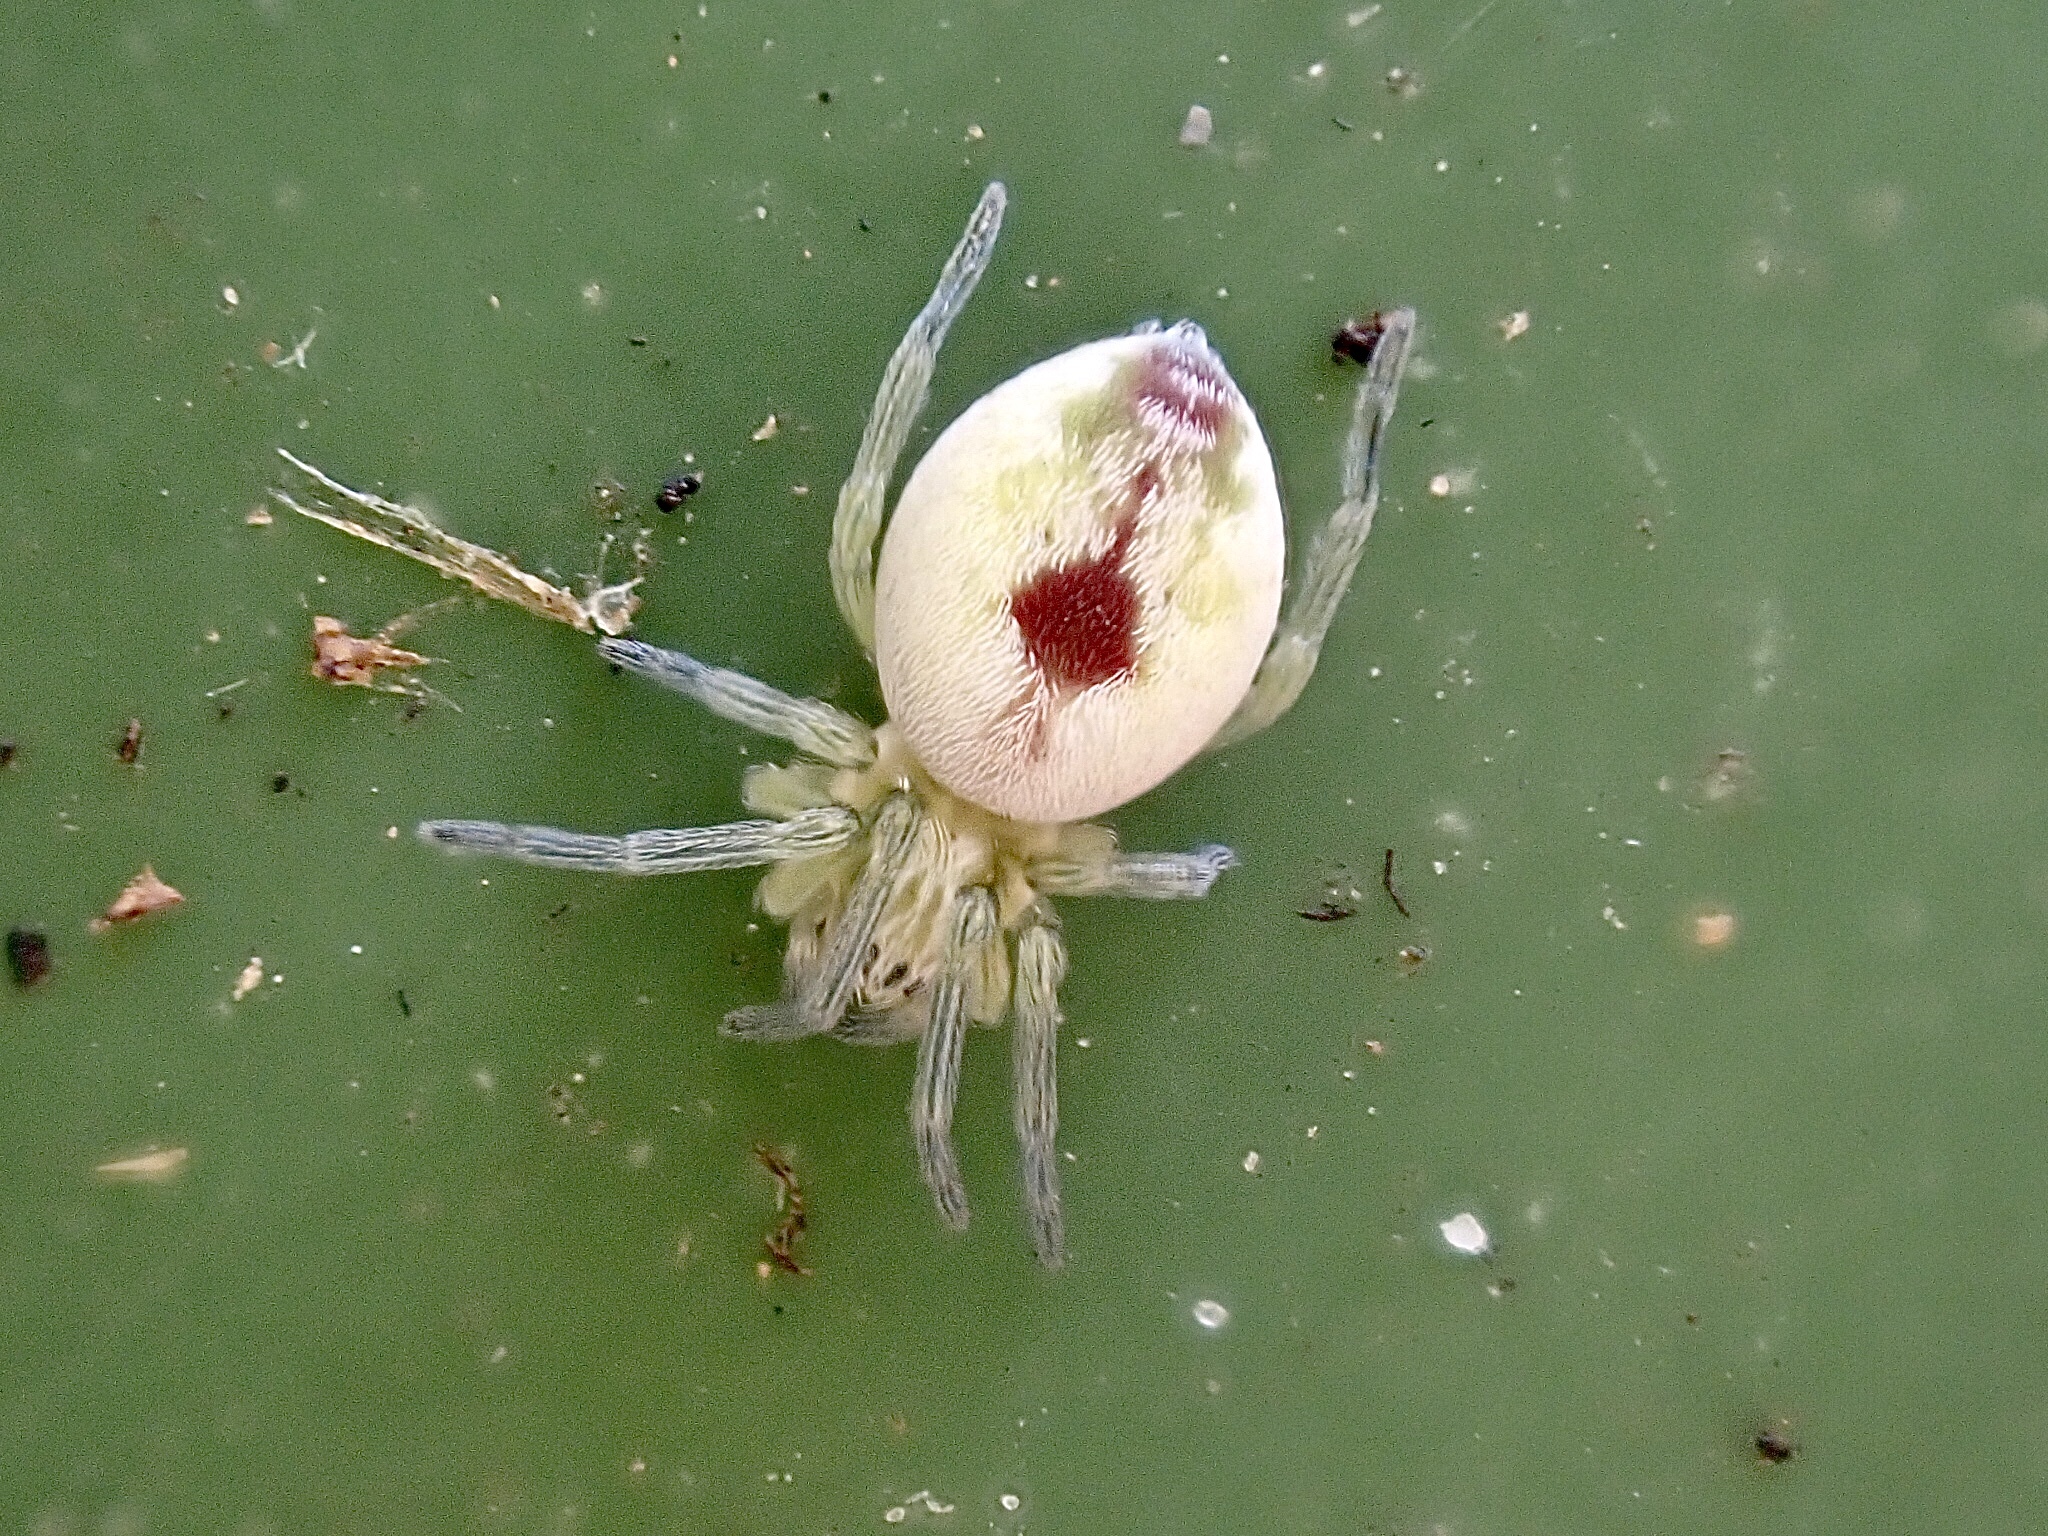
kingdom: Animalia
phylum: Arthropoda
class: Arachnida
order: Araneae
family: Dictynidae
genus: Nigma
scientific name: Nigma puella
